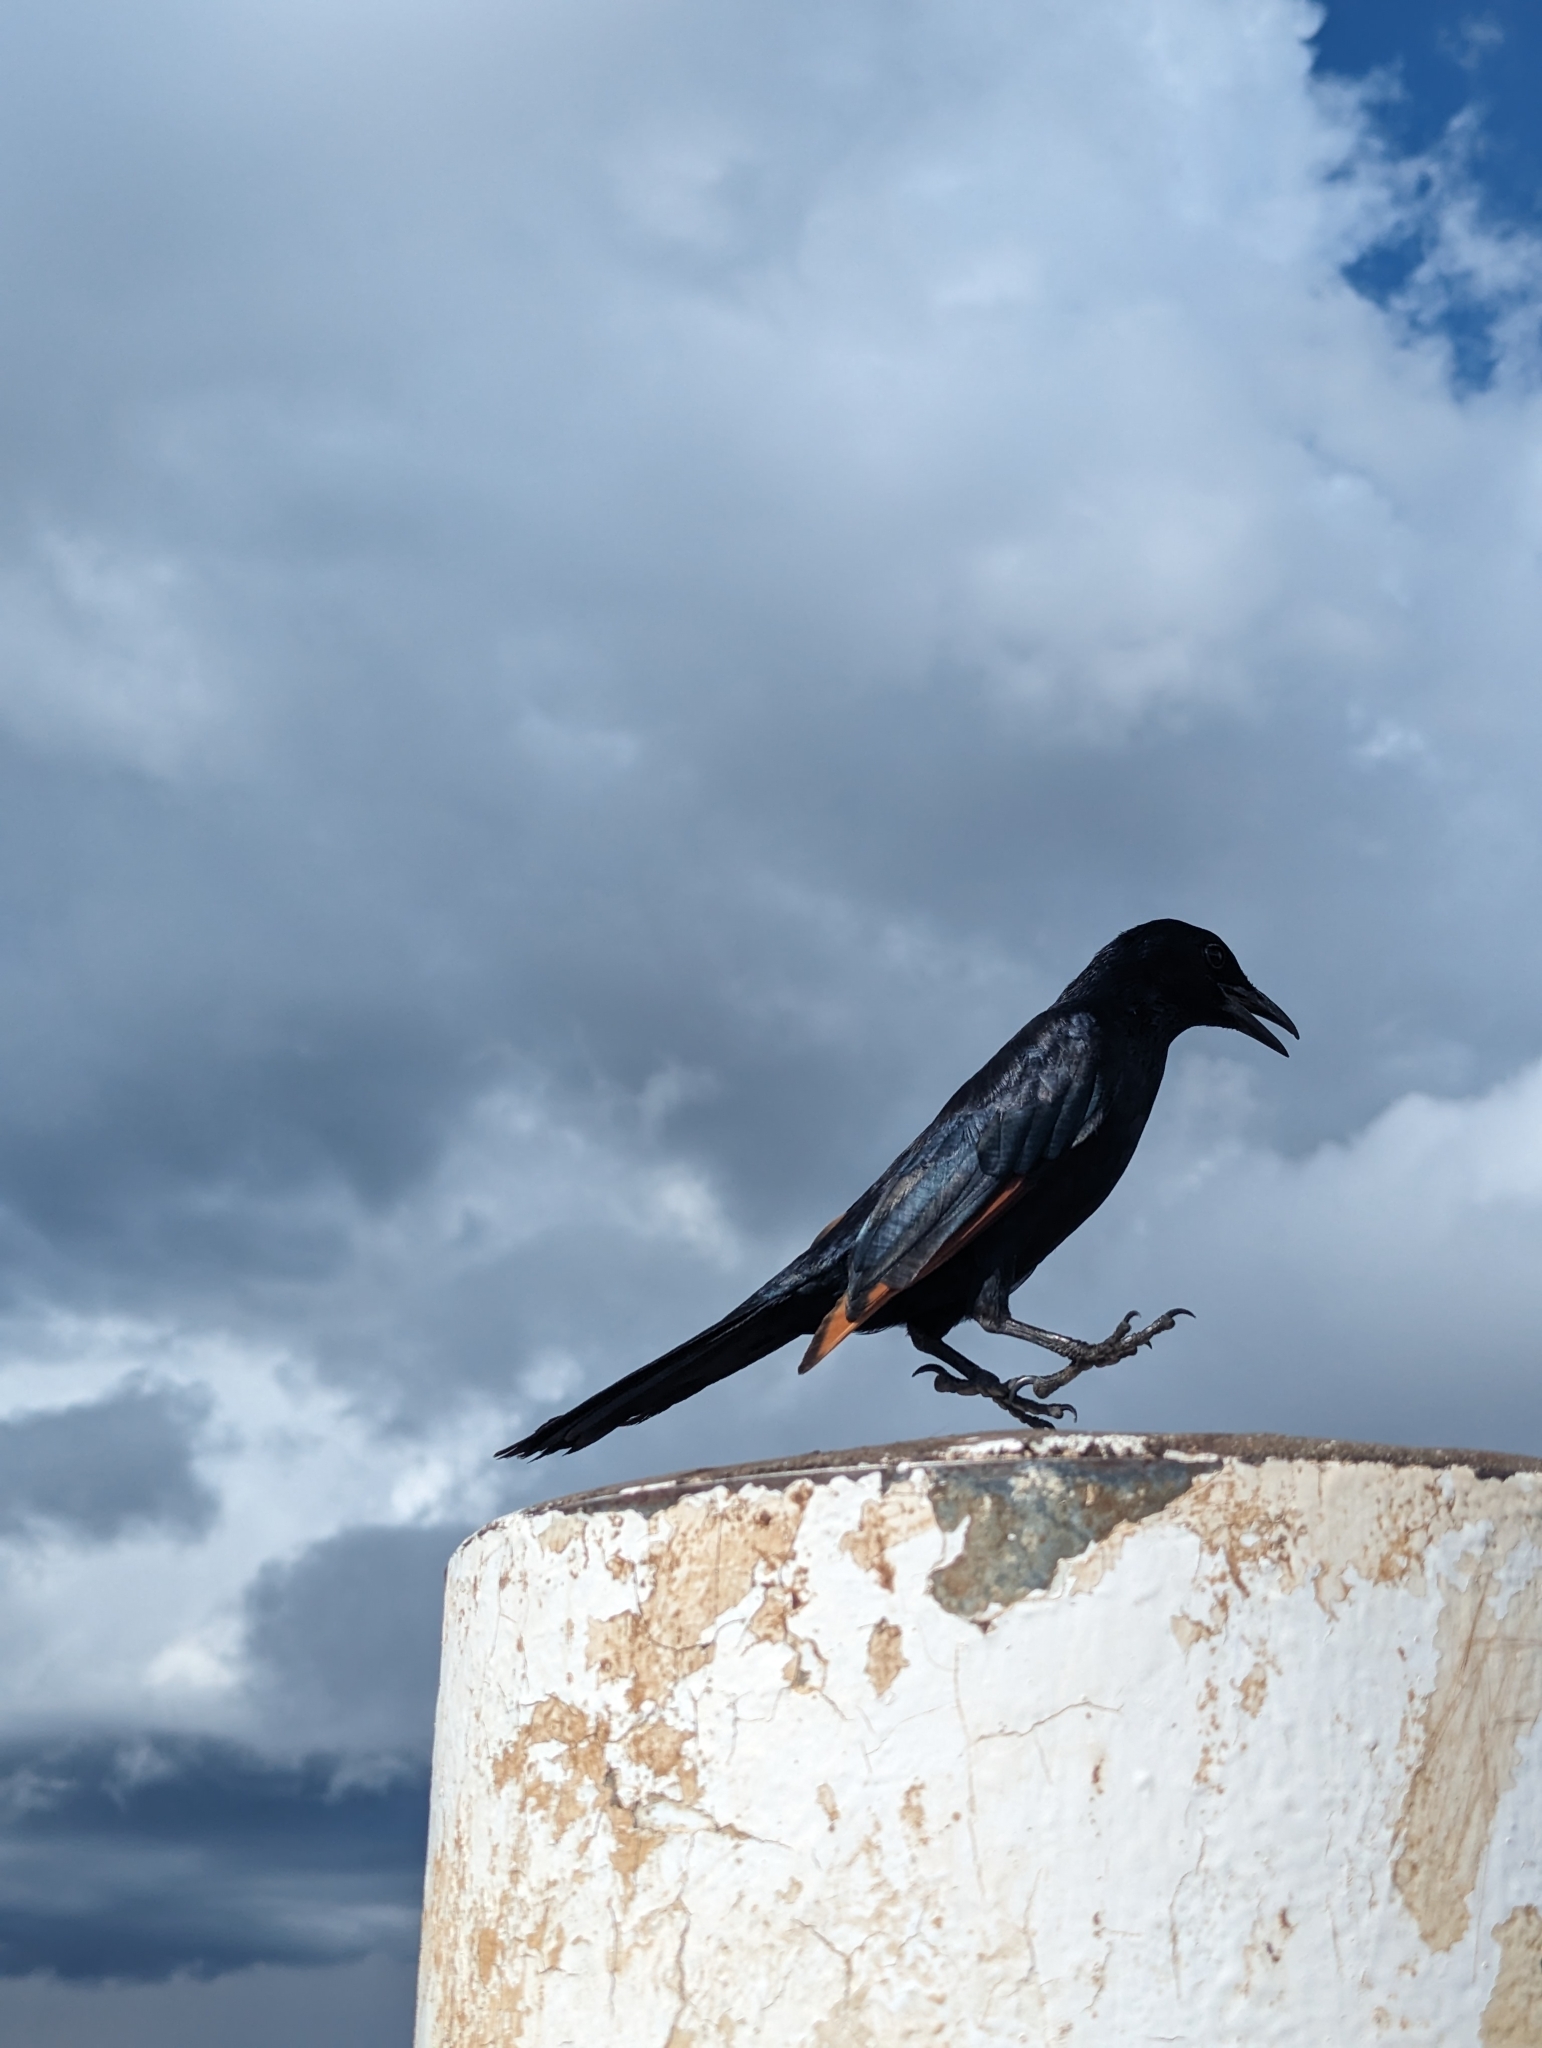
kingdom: Animalia
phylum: Chordata
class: Aves
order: Passeriformes
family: Sturnidae
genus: Onychognathus
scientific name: Onychognathus morio
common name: Red-winged starling
